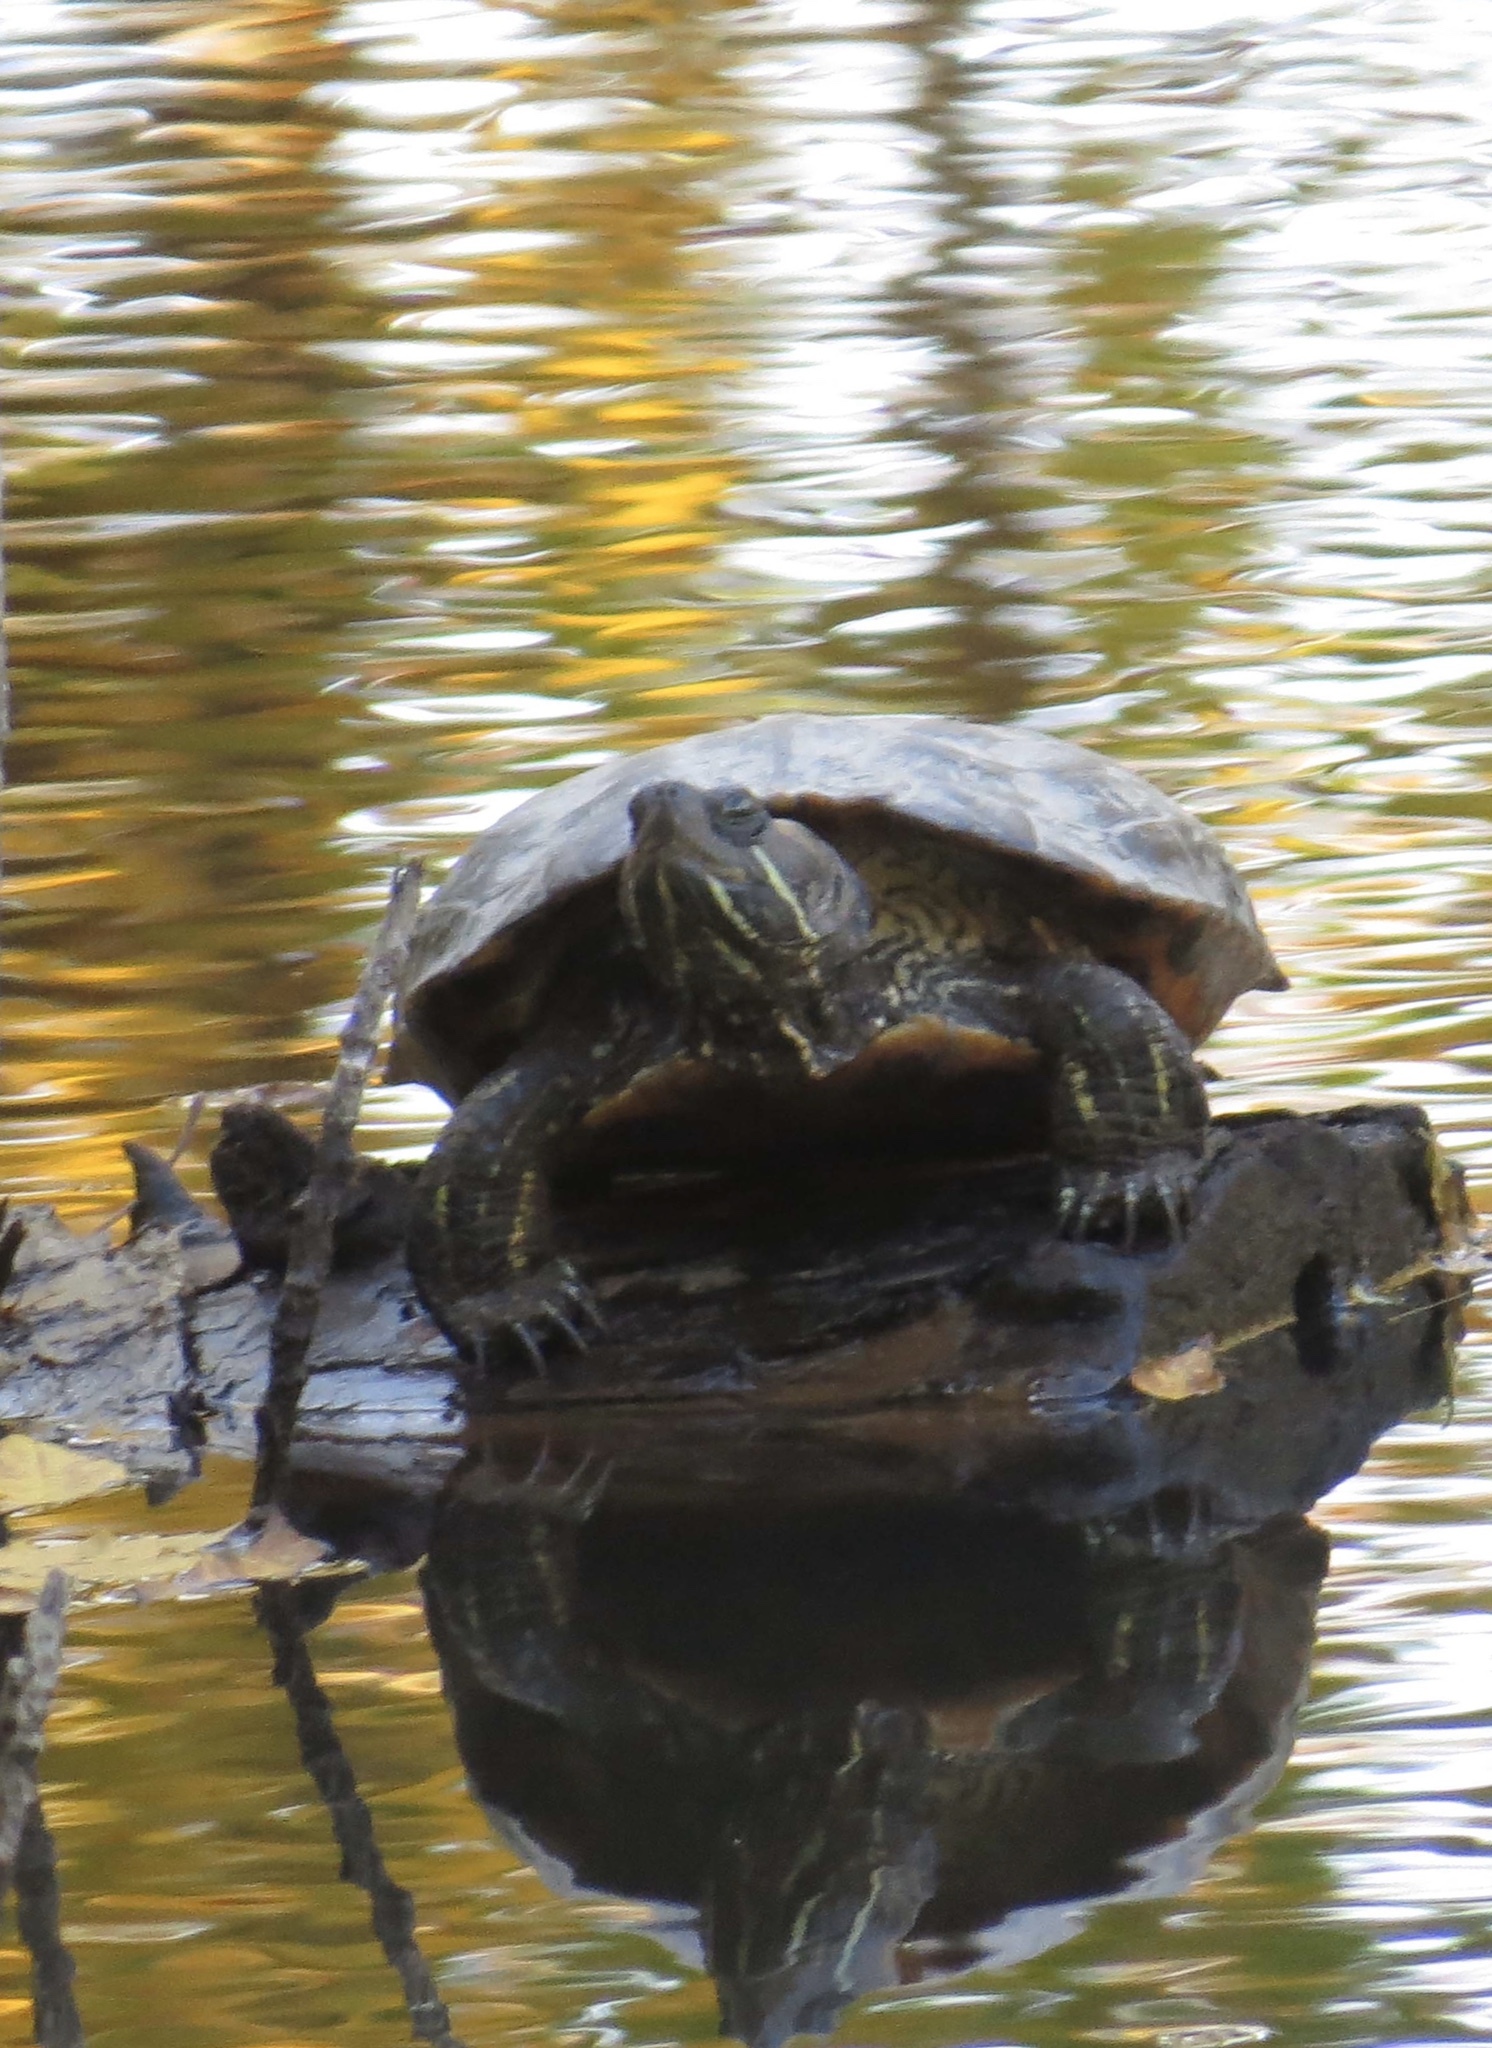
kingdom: Animalia
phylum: Chordata
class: Testudines
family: Emydidae
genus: Trachemys
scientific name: Trachemys scripta
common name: Slider
